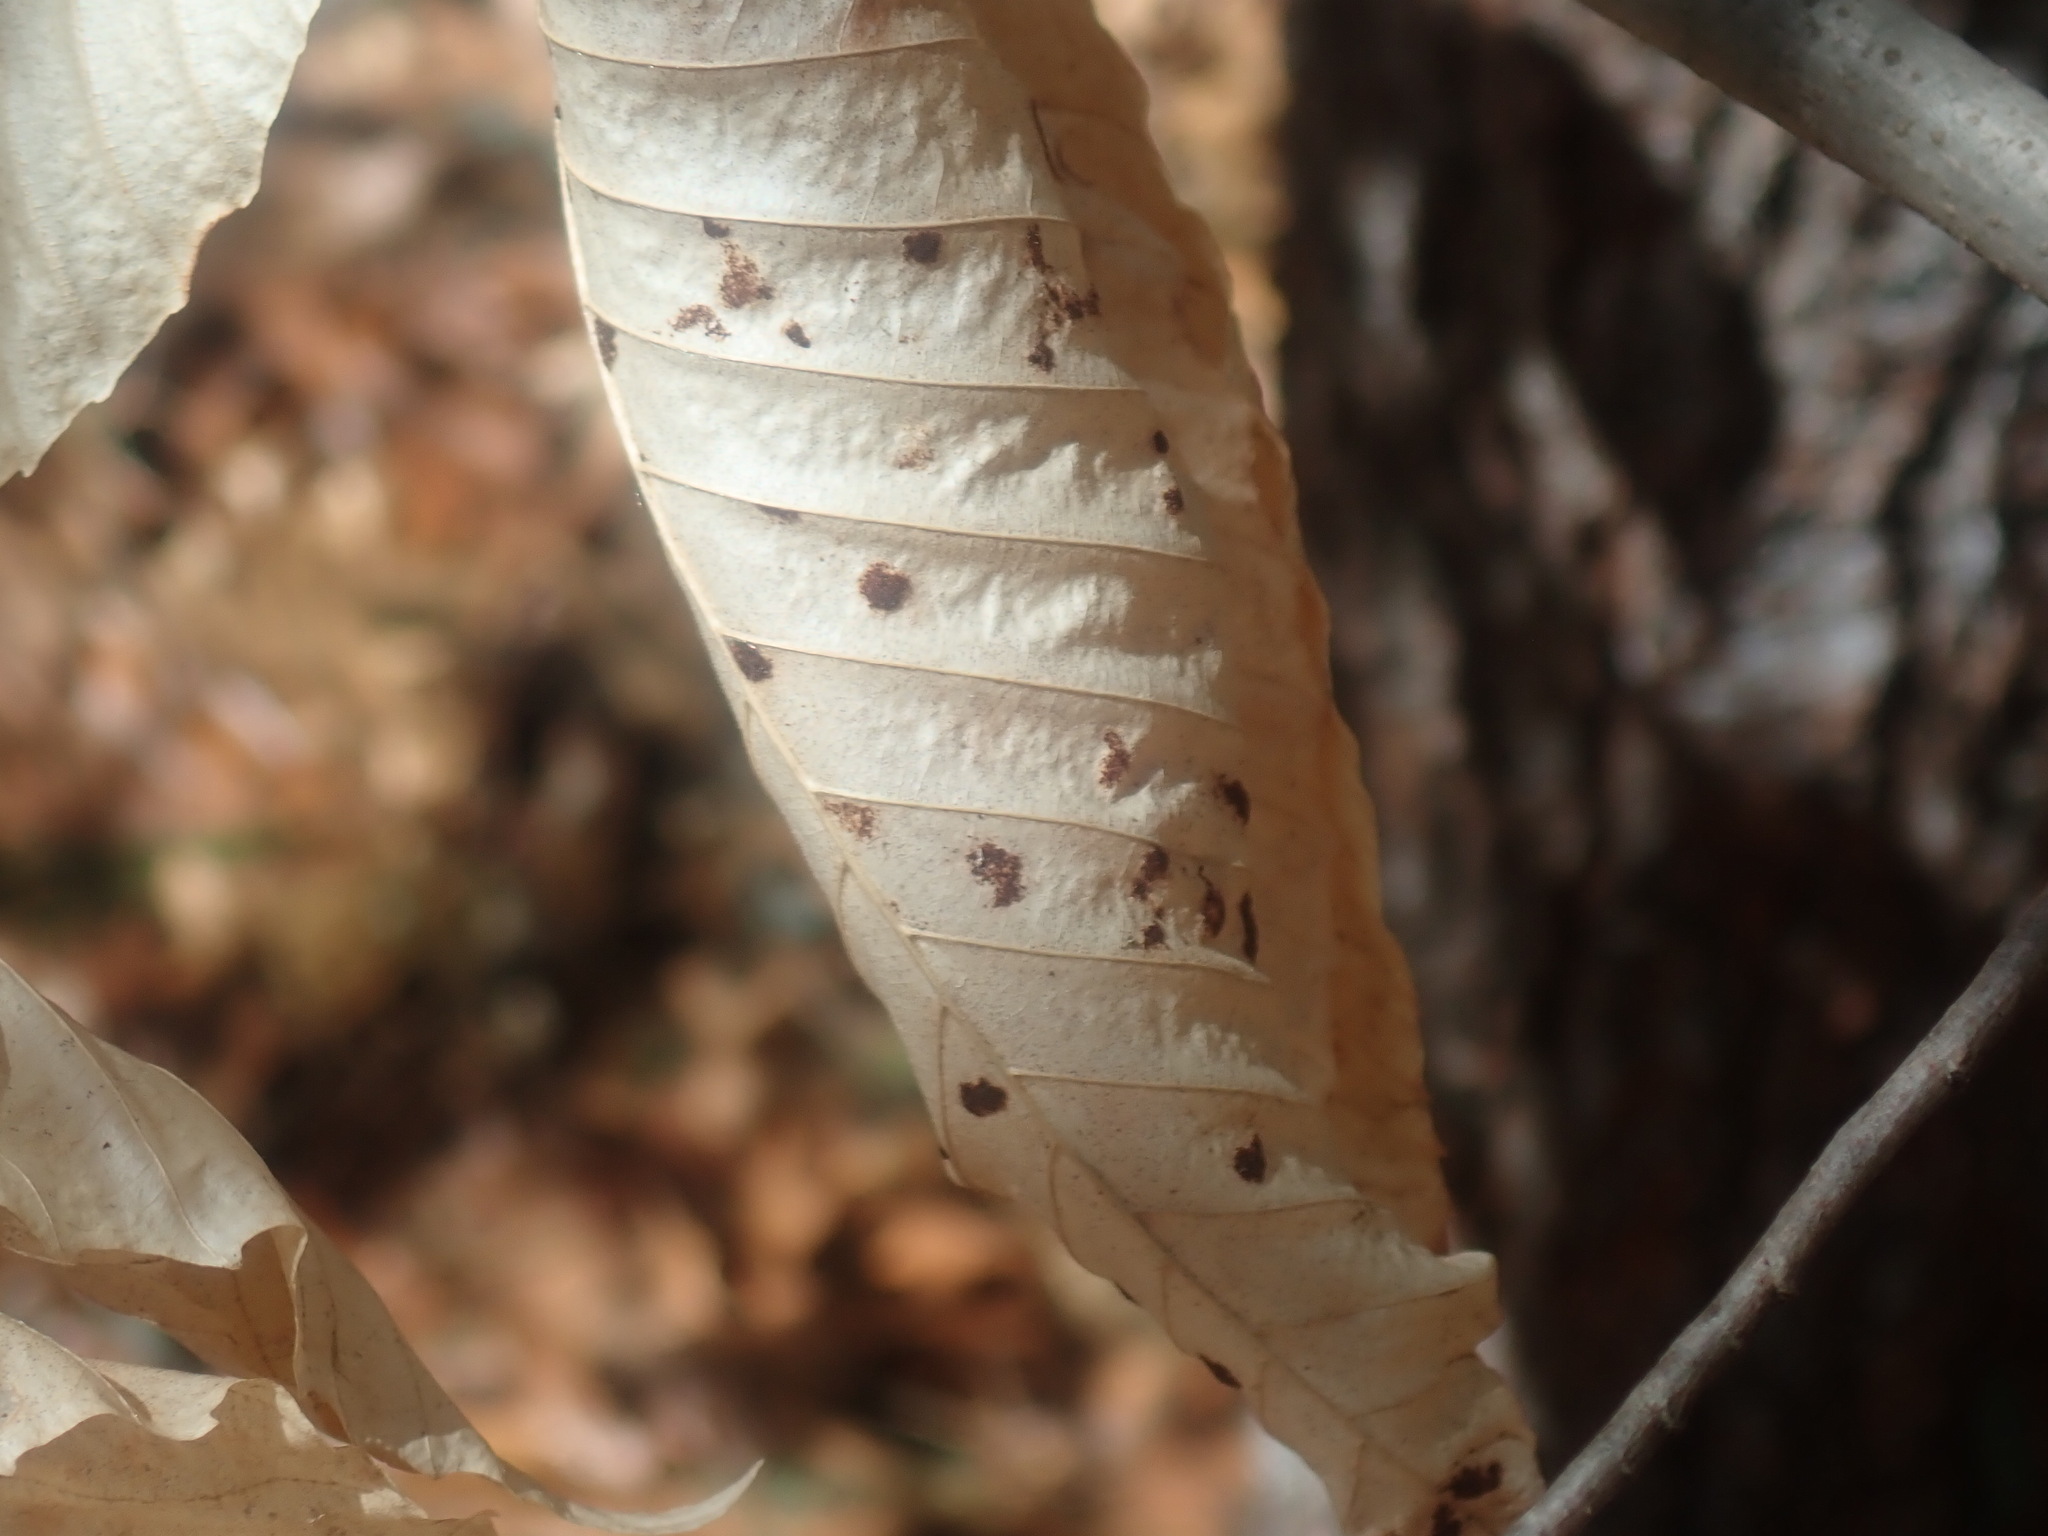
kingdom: Animalia
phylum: Arthropoda
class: Arachnida
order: Trombidiformes
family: Eriophyidae
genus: Acalitus
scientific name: Acalitus
